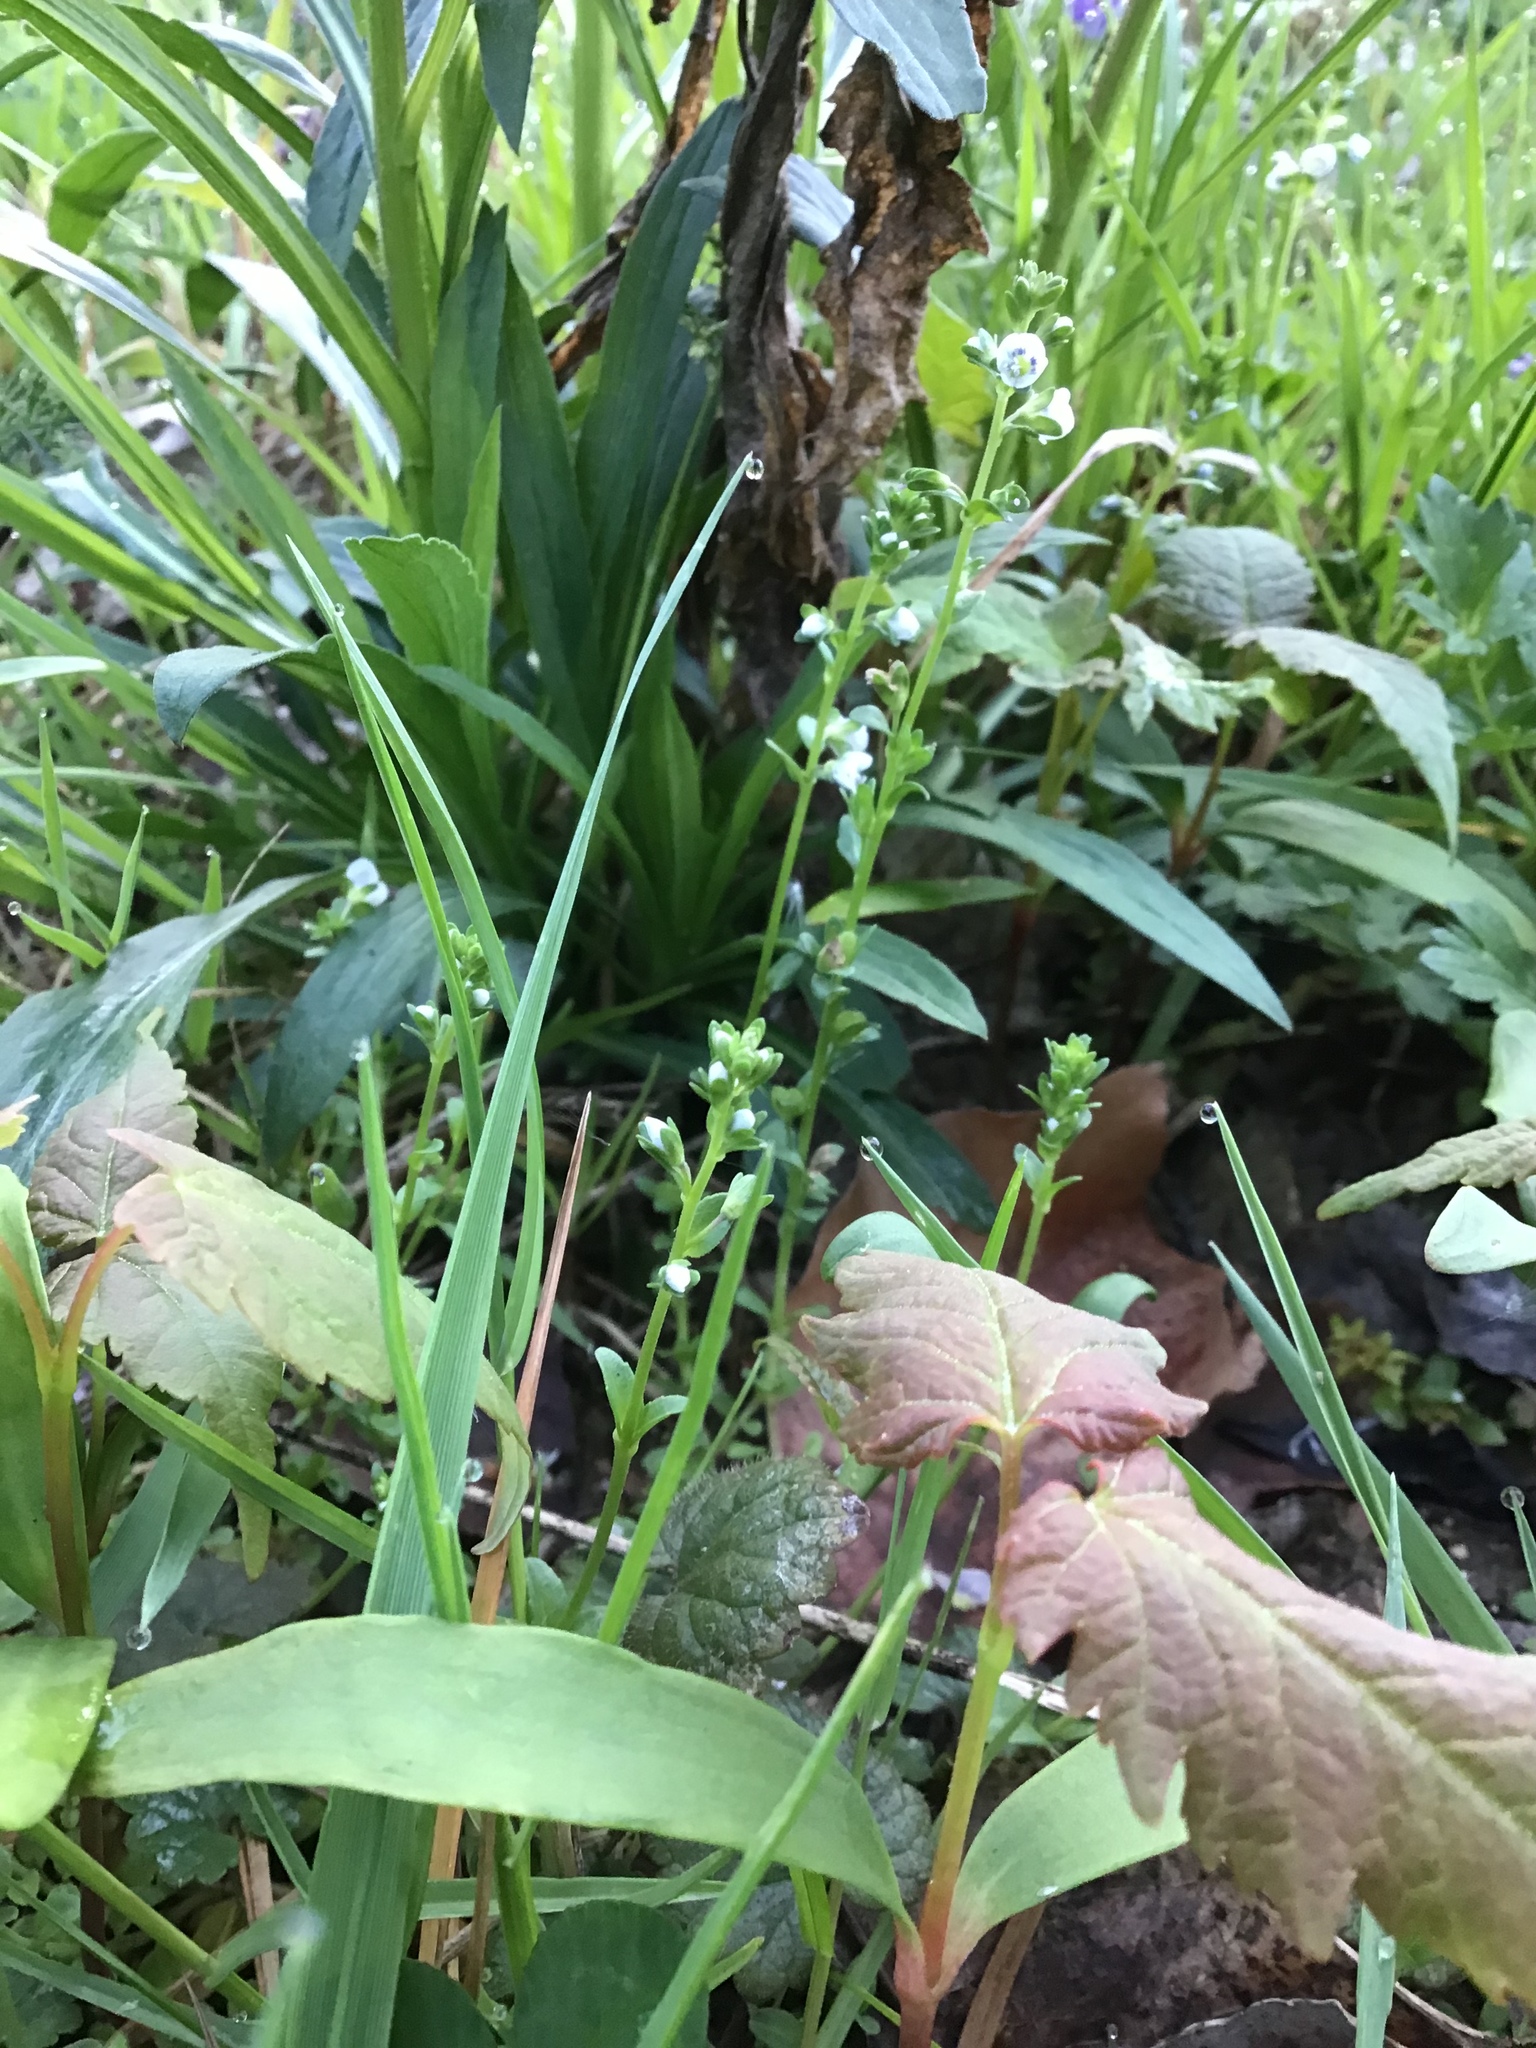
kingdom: Plantae
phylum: Tracheophyta
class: Magnoliopsida
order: Lamiales
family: Plantaginaceae
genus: Veronica
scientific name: Veronica serpyllifolia
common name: Thyme-leaved speedwell
